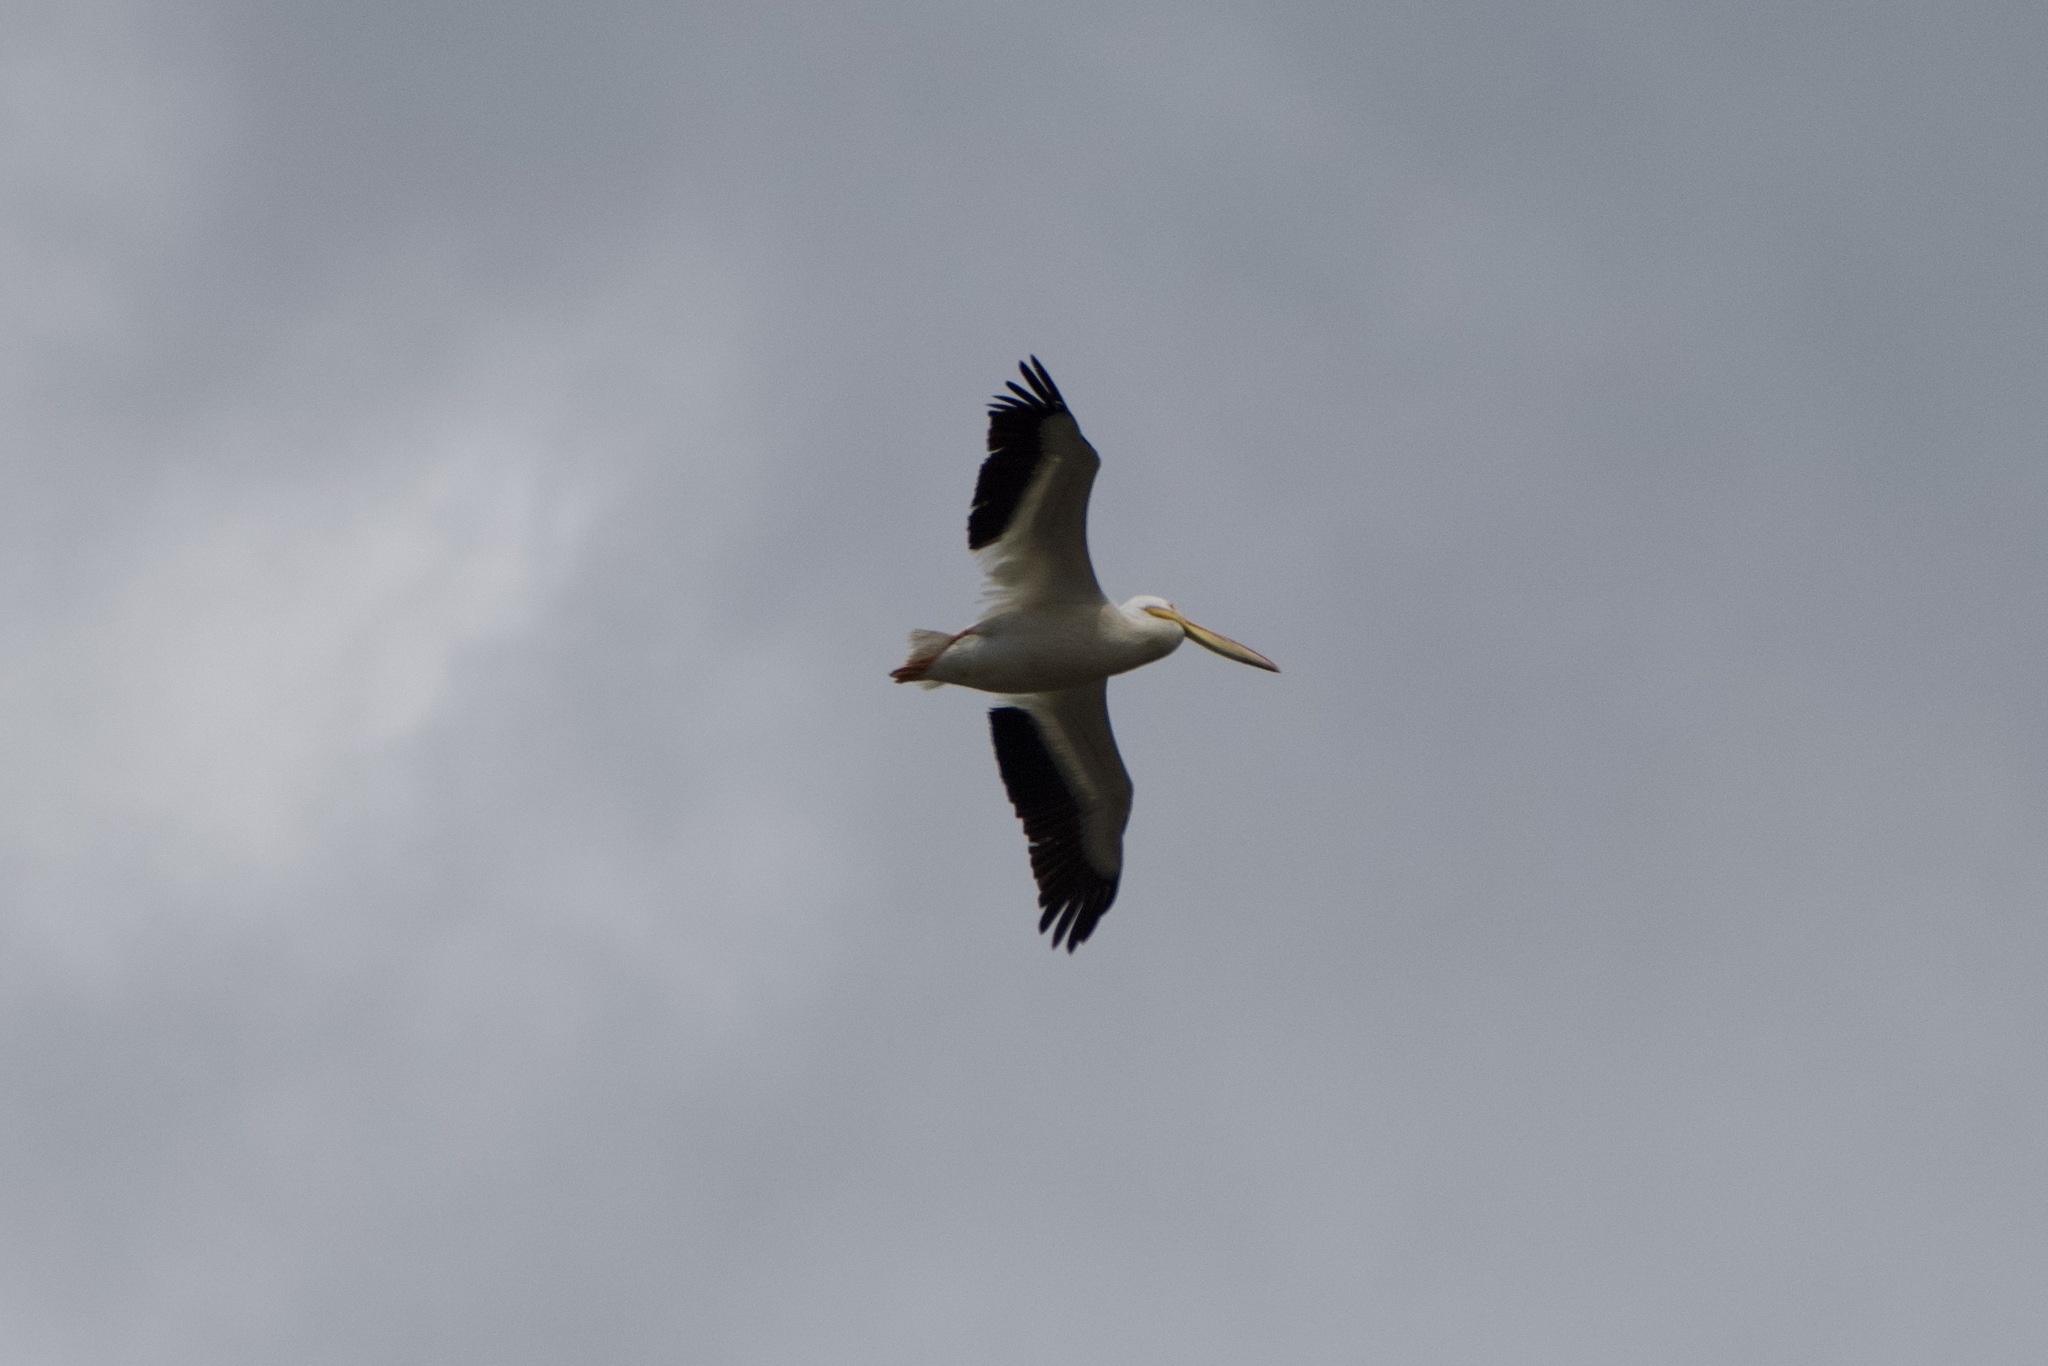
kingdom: Animalia
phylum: Chordata
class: Aves
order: Pelecaniformes
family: Pelecanidae
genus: Pelecanus
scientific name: Pelecanus erythrorhynchos
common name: American white pelican
